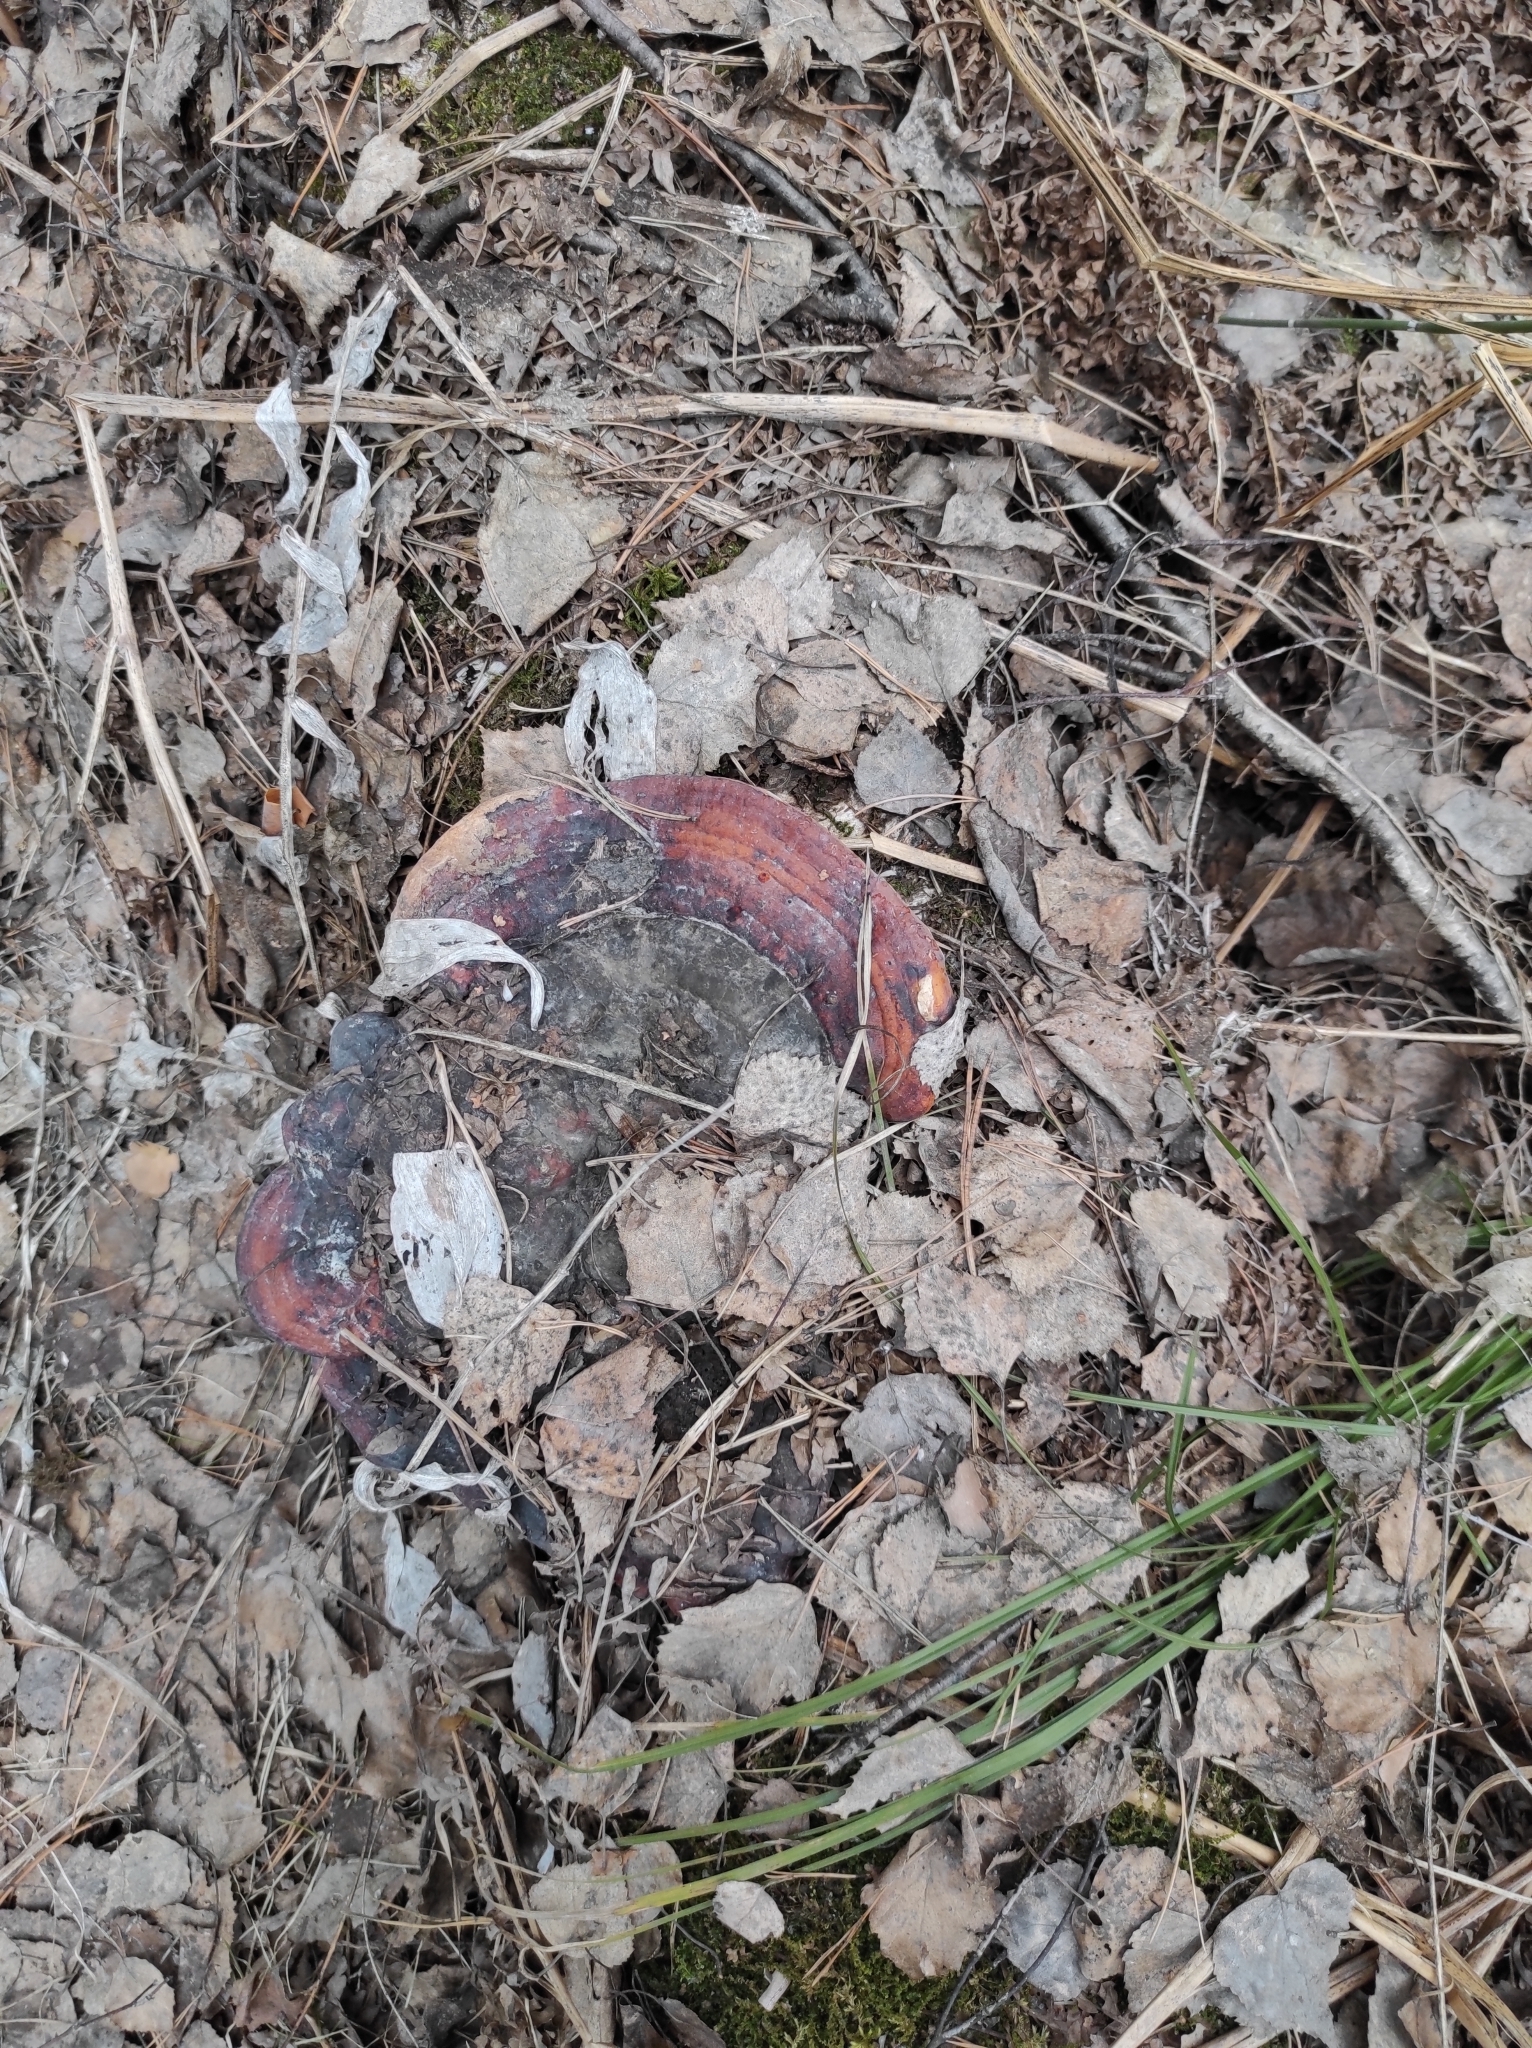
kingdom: Fungi
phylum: Basidiomycota
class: Agaricomycetes
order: Polyporales
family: Fomitopsidaceae
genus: Fomitopsis
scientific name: Fomitopsis pinicola
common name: Red-belted bracket
